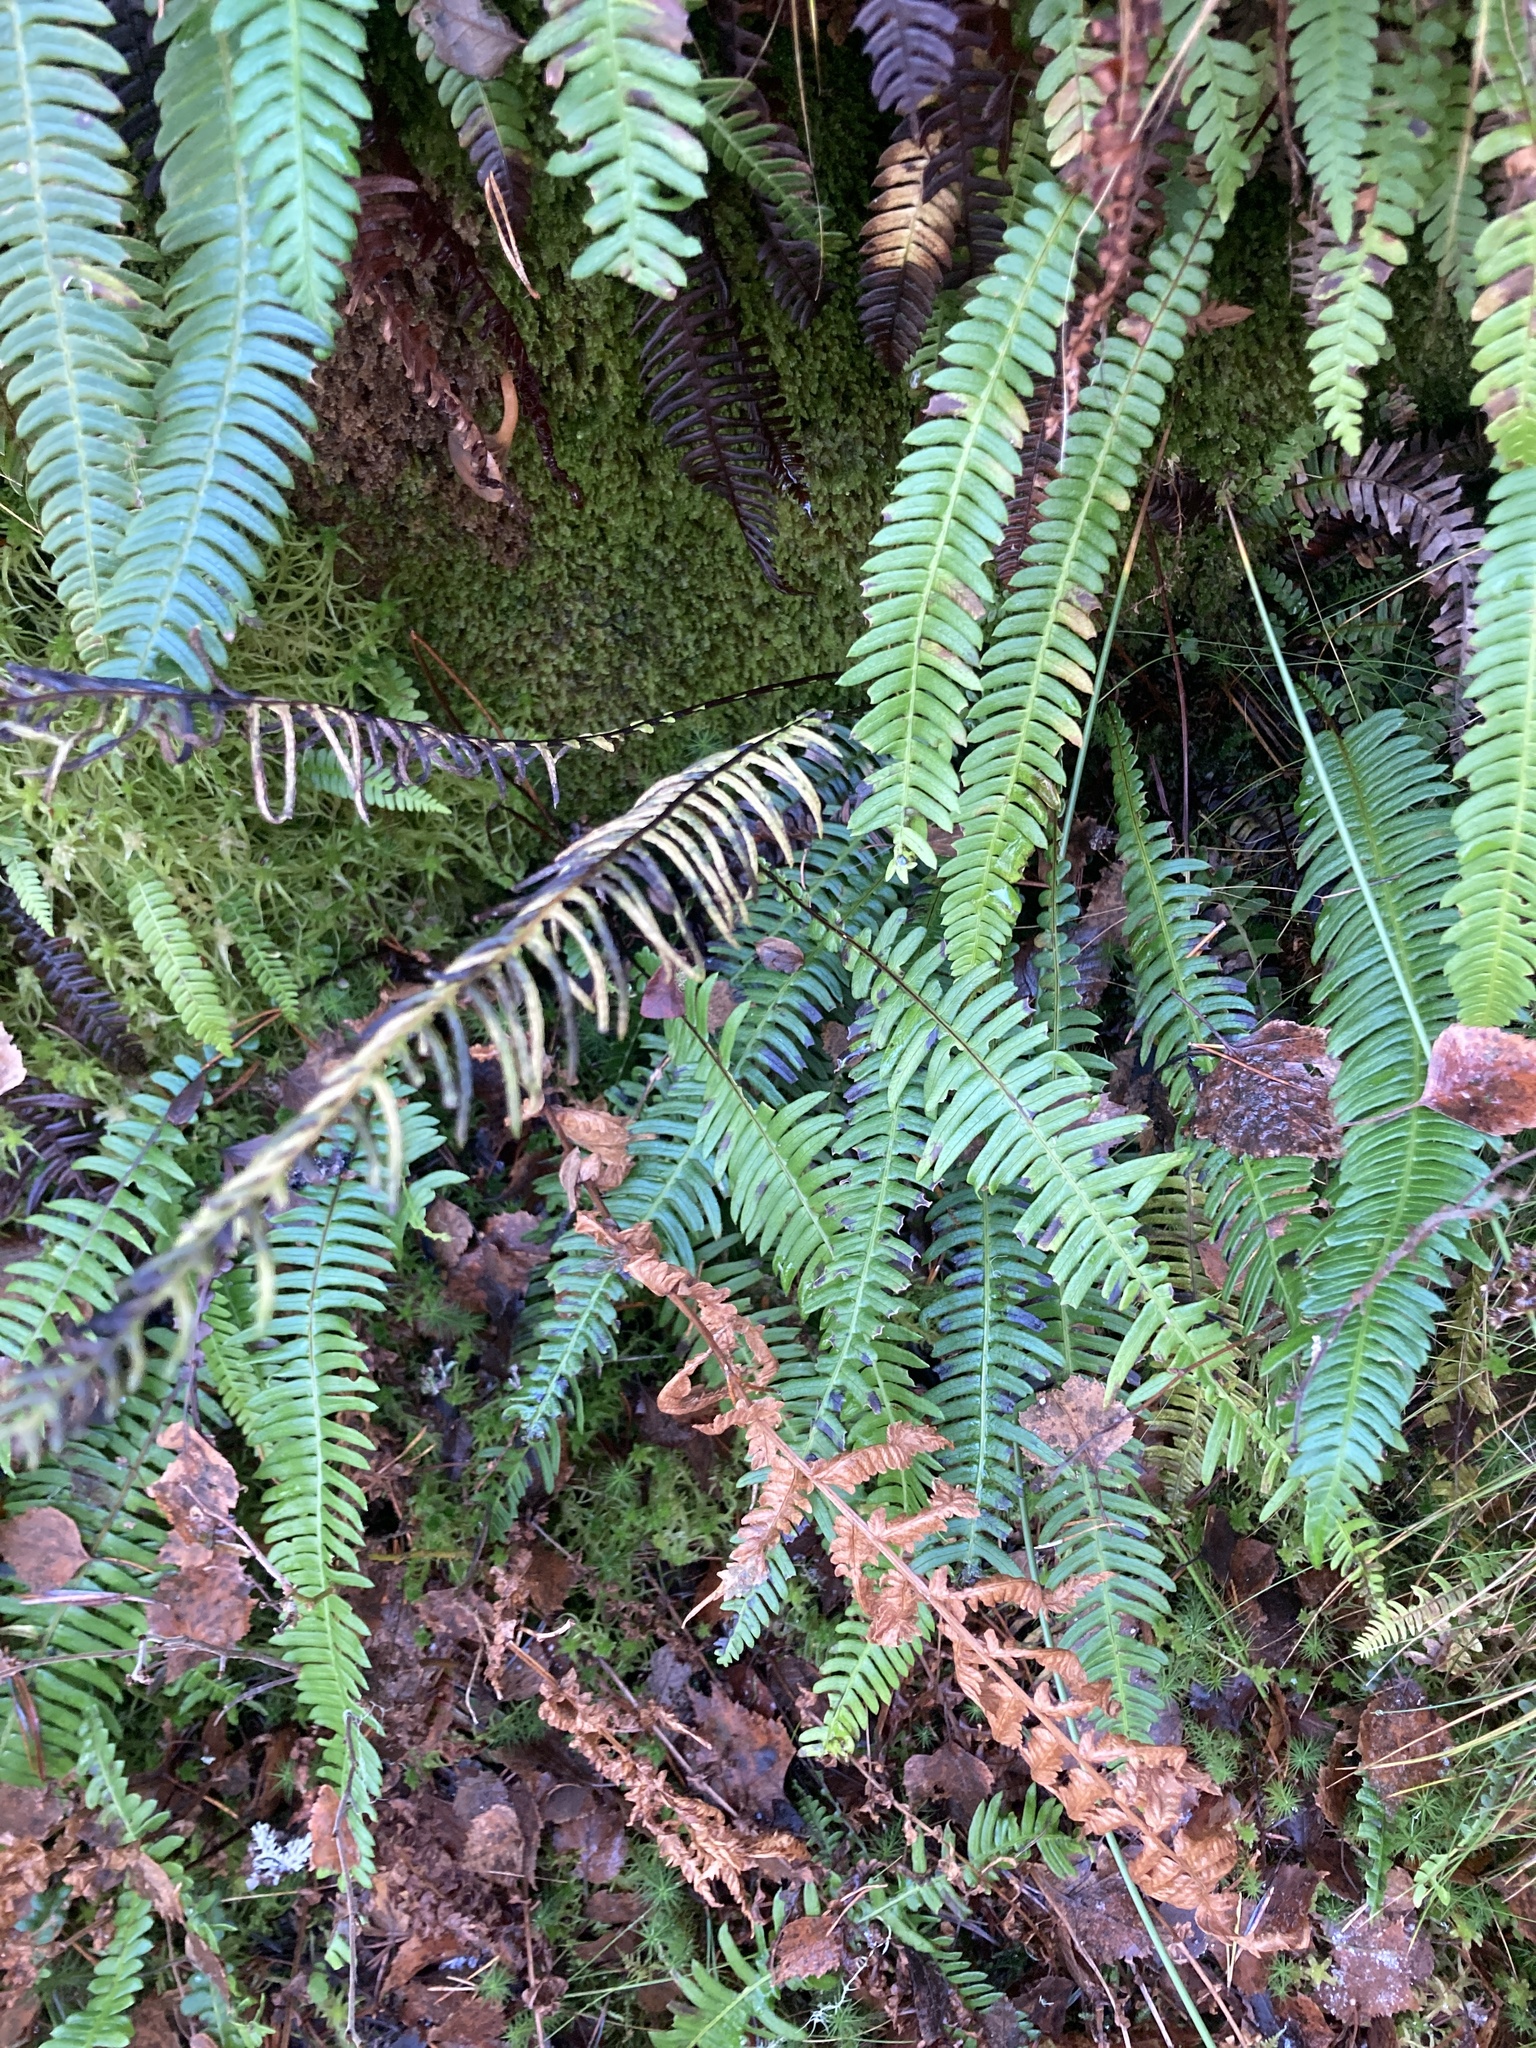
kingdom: Plantae
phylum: Tracheophyta
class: Polypodiopsida
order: Polypodiales
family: Blechnaceae
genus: Struthiopteris
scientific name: Struthiopteris spicant
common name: Deer fern
